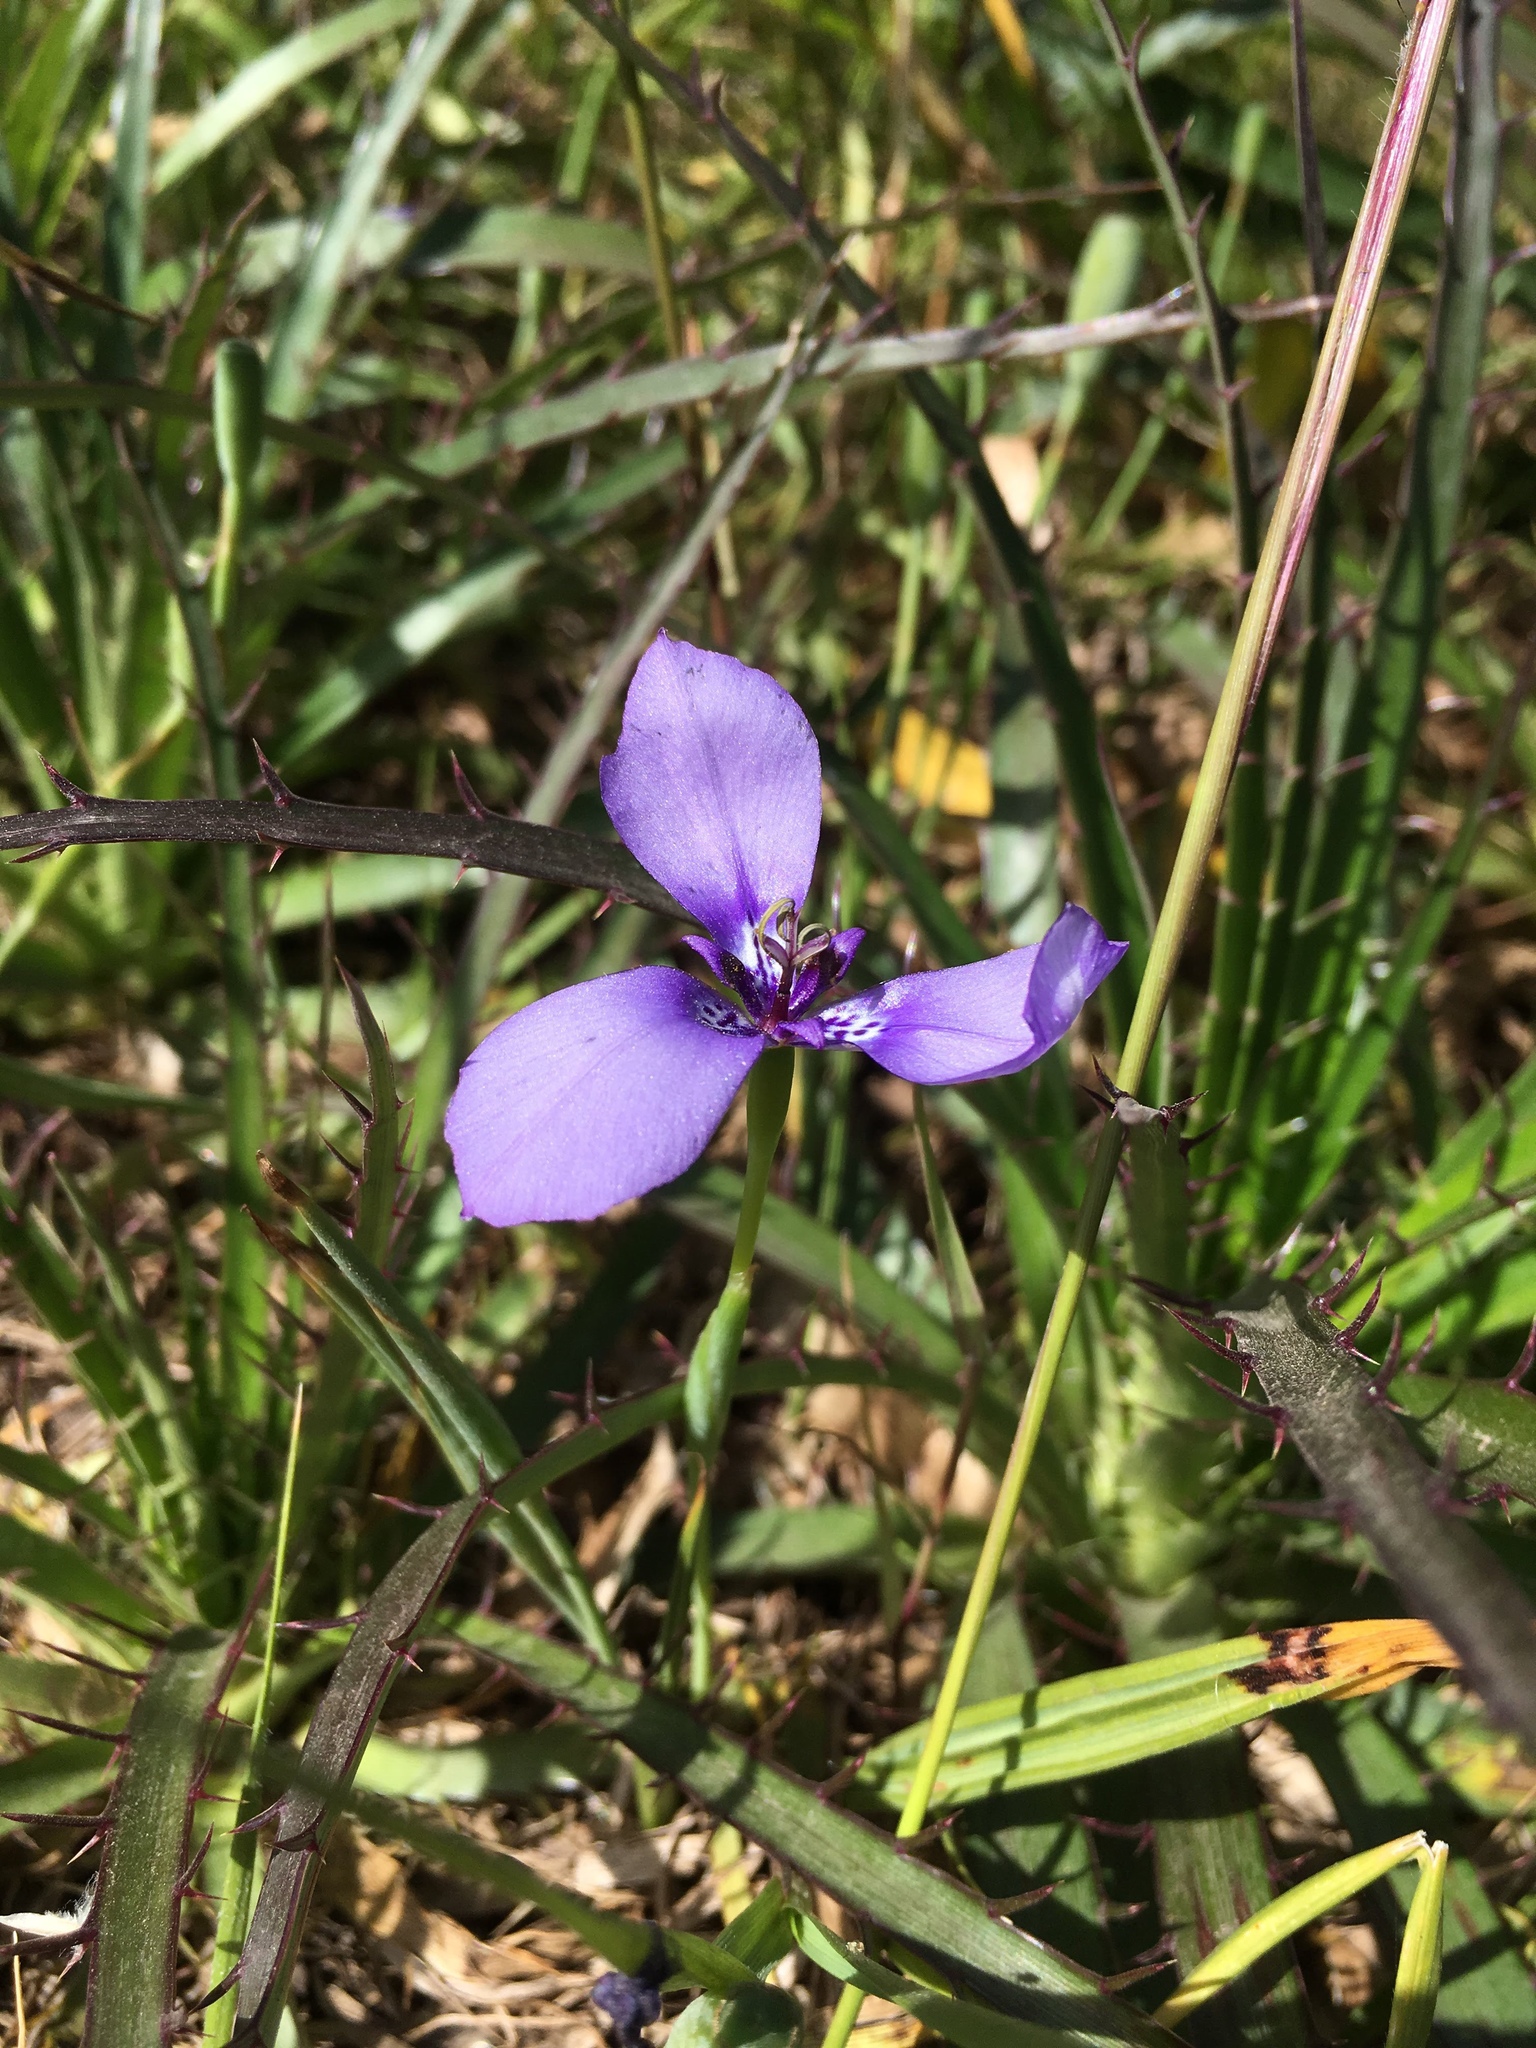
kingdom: Plantae
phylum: Tracheophyta
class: Liliopsida
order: Asparagales
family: Iridaceae
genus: Herbertia
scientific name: Herbertia lahue
